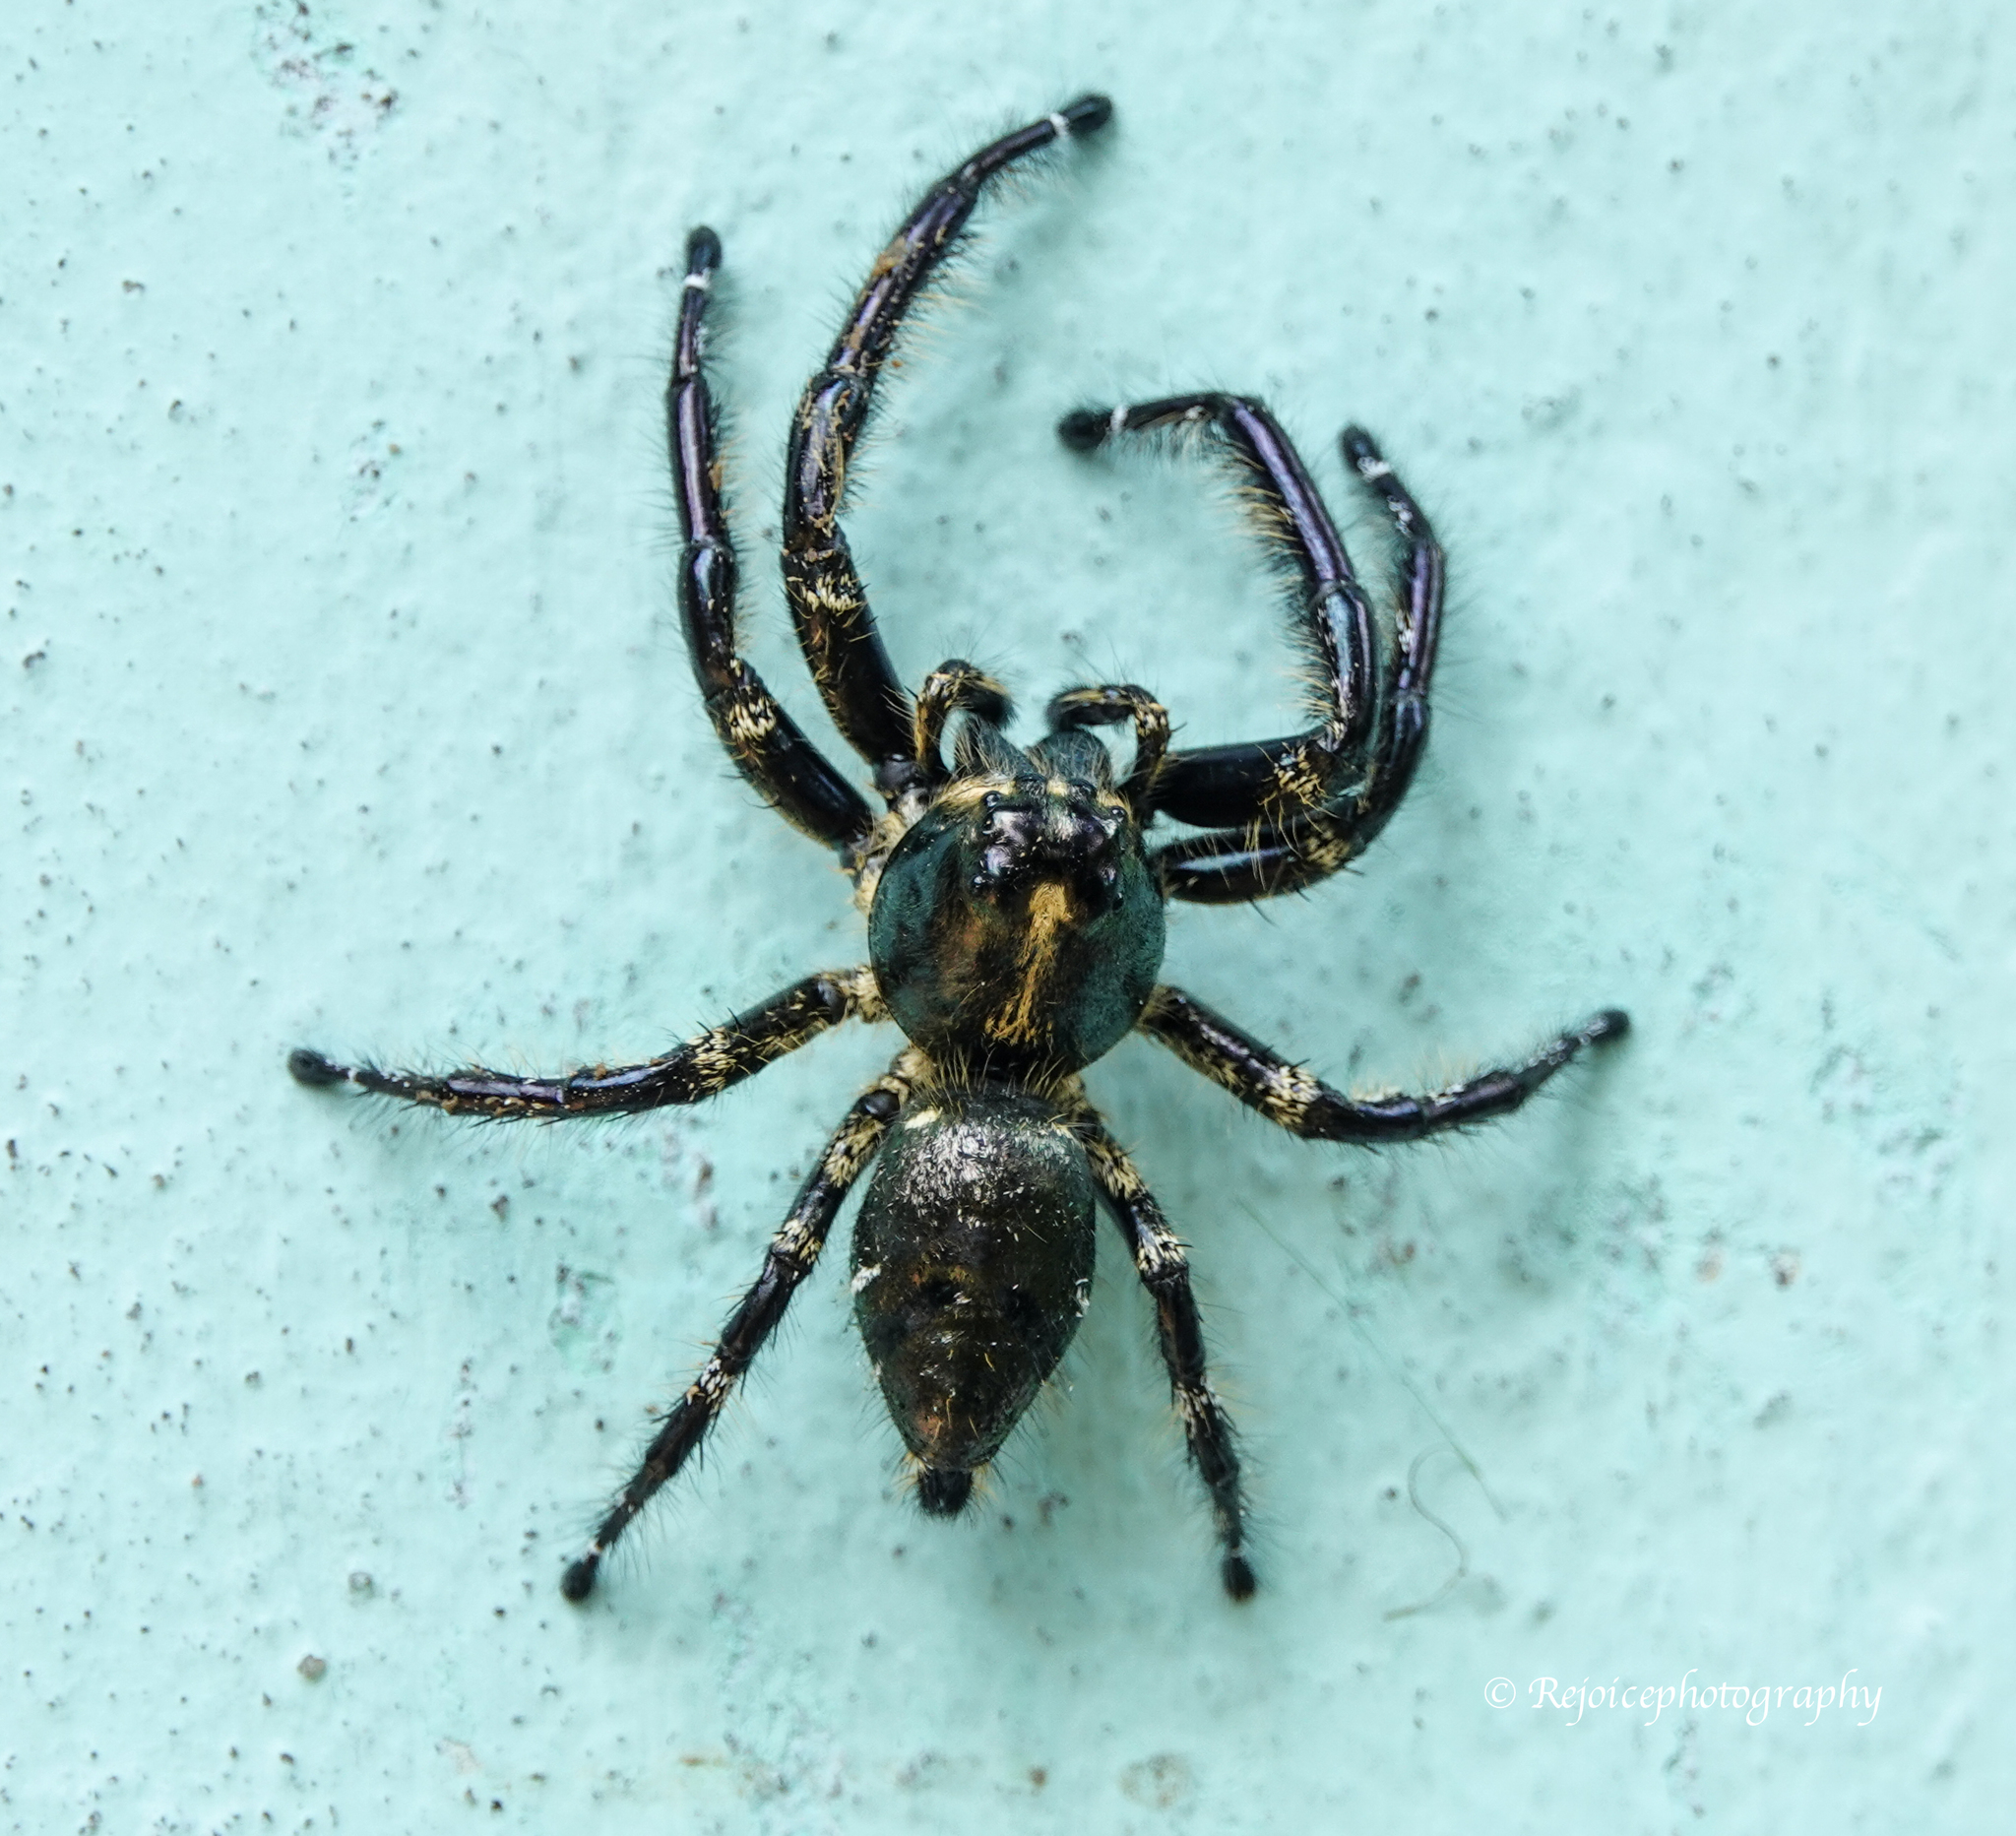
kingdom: Animalia
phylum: Arthropoda
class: Arachnida
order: Araneae
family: Salticidae
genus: Hyllus
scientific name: Hyllus diardi
